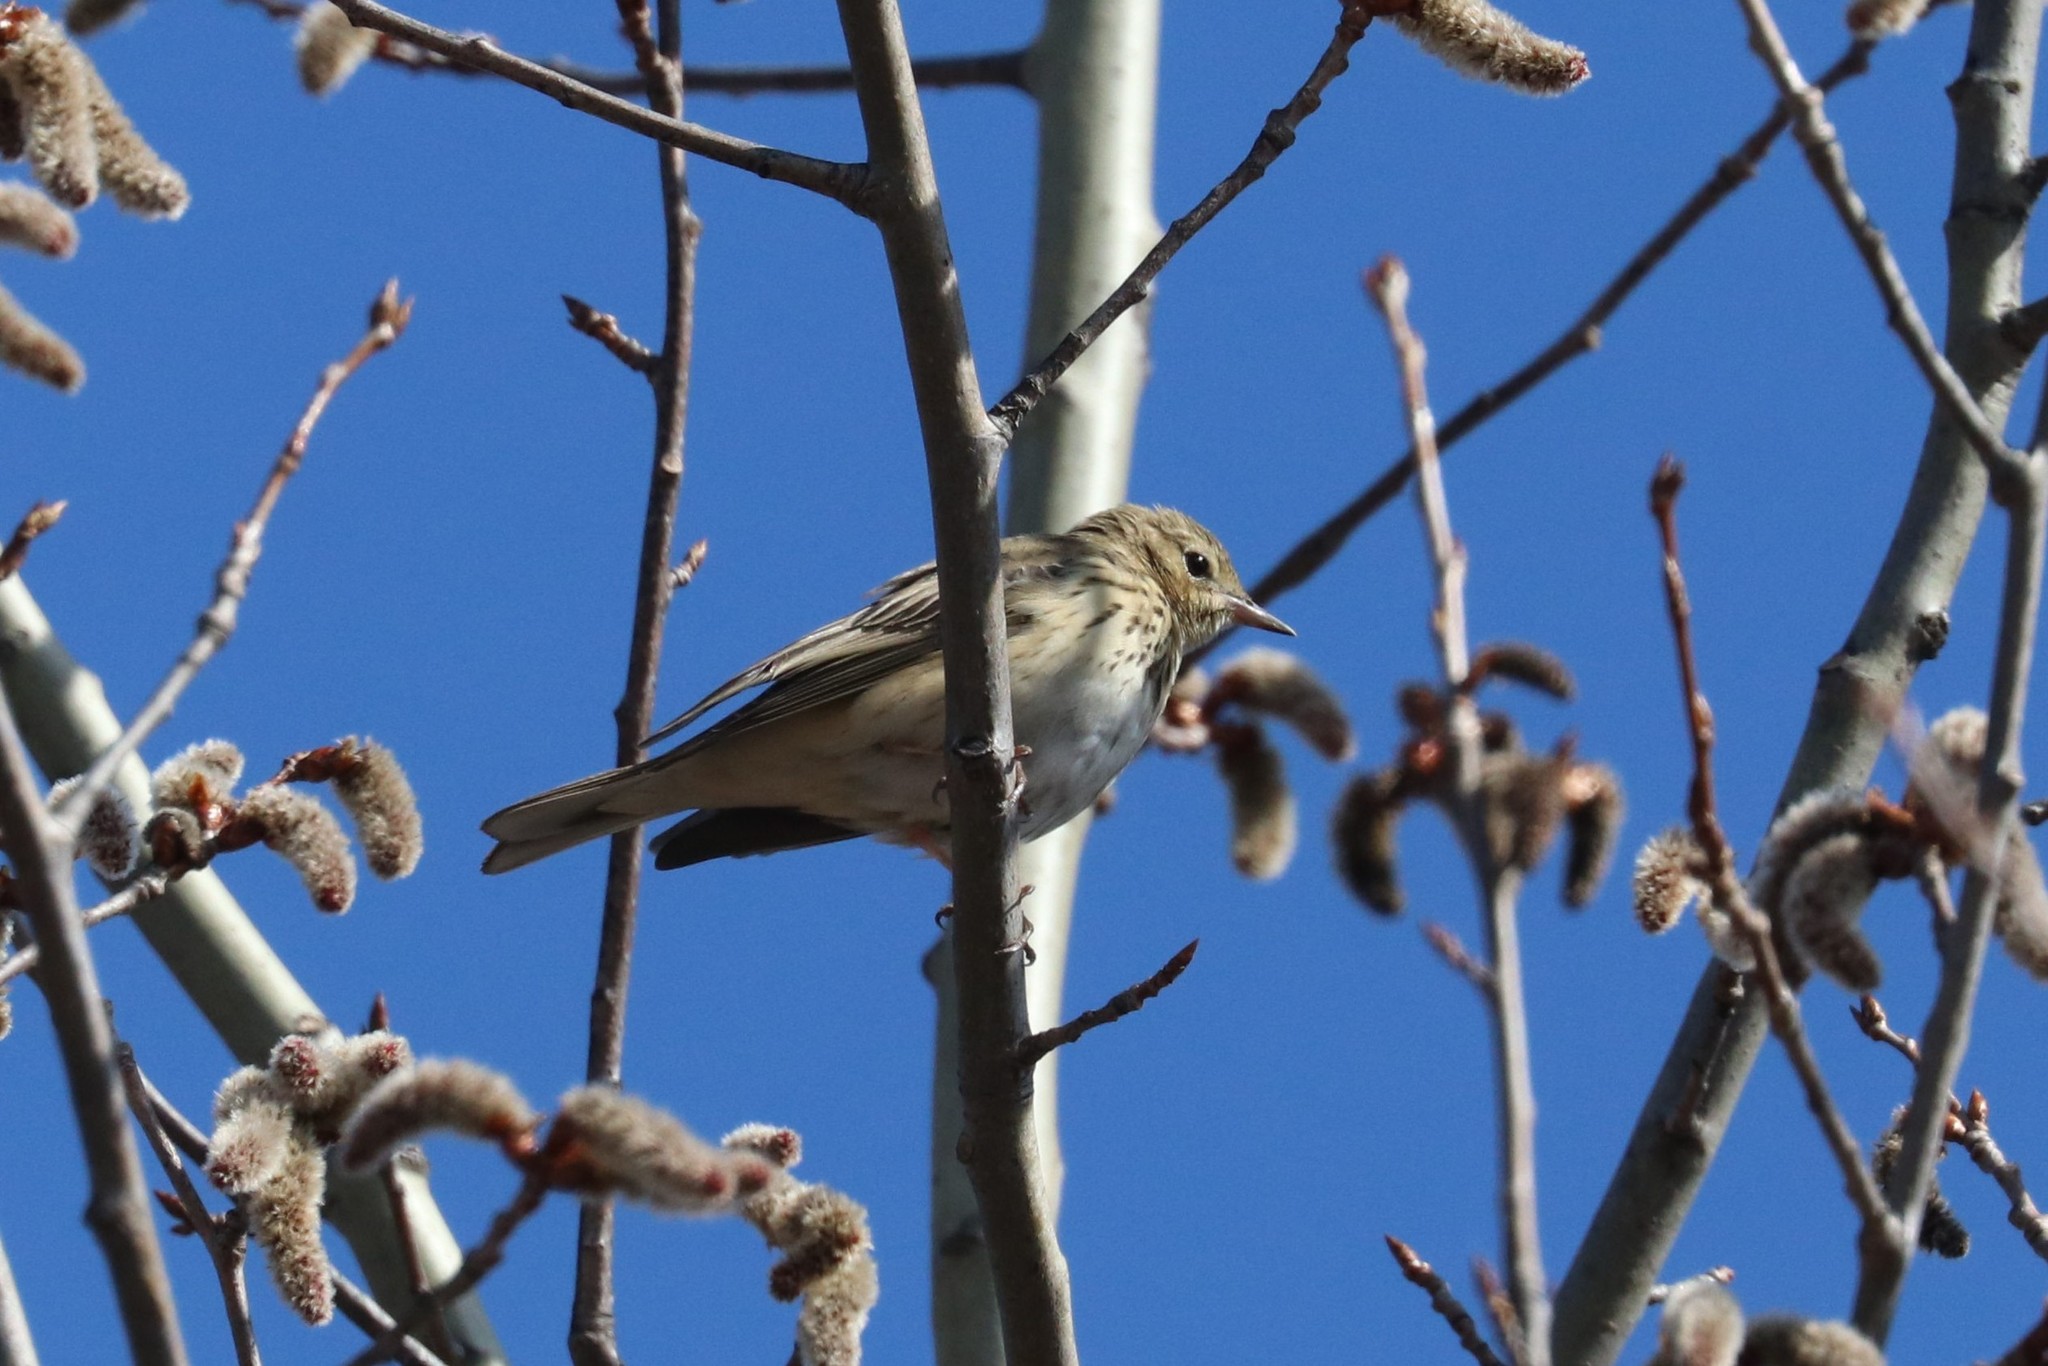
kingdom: Animalia
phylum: Chordata
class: Aves
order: Passeriformes
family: Motacillidae
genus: Anthus
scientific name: Anthus trivialis
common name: Tree pipit
